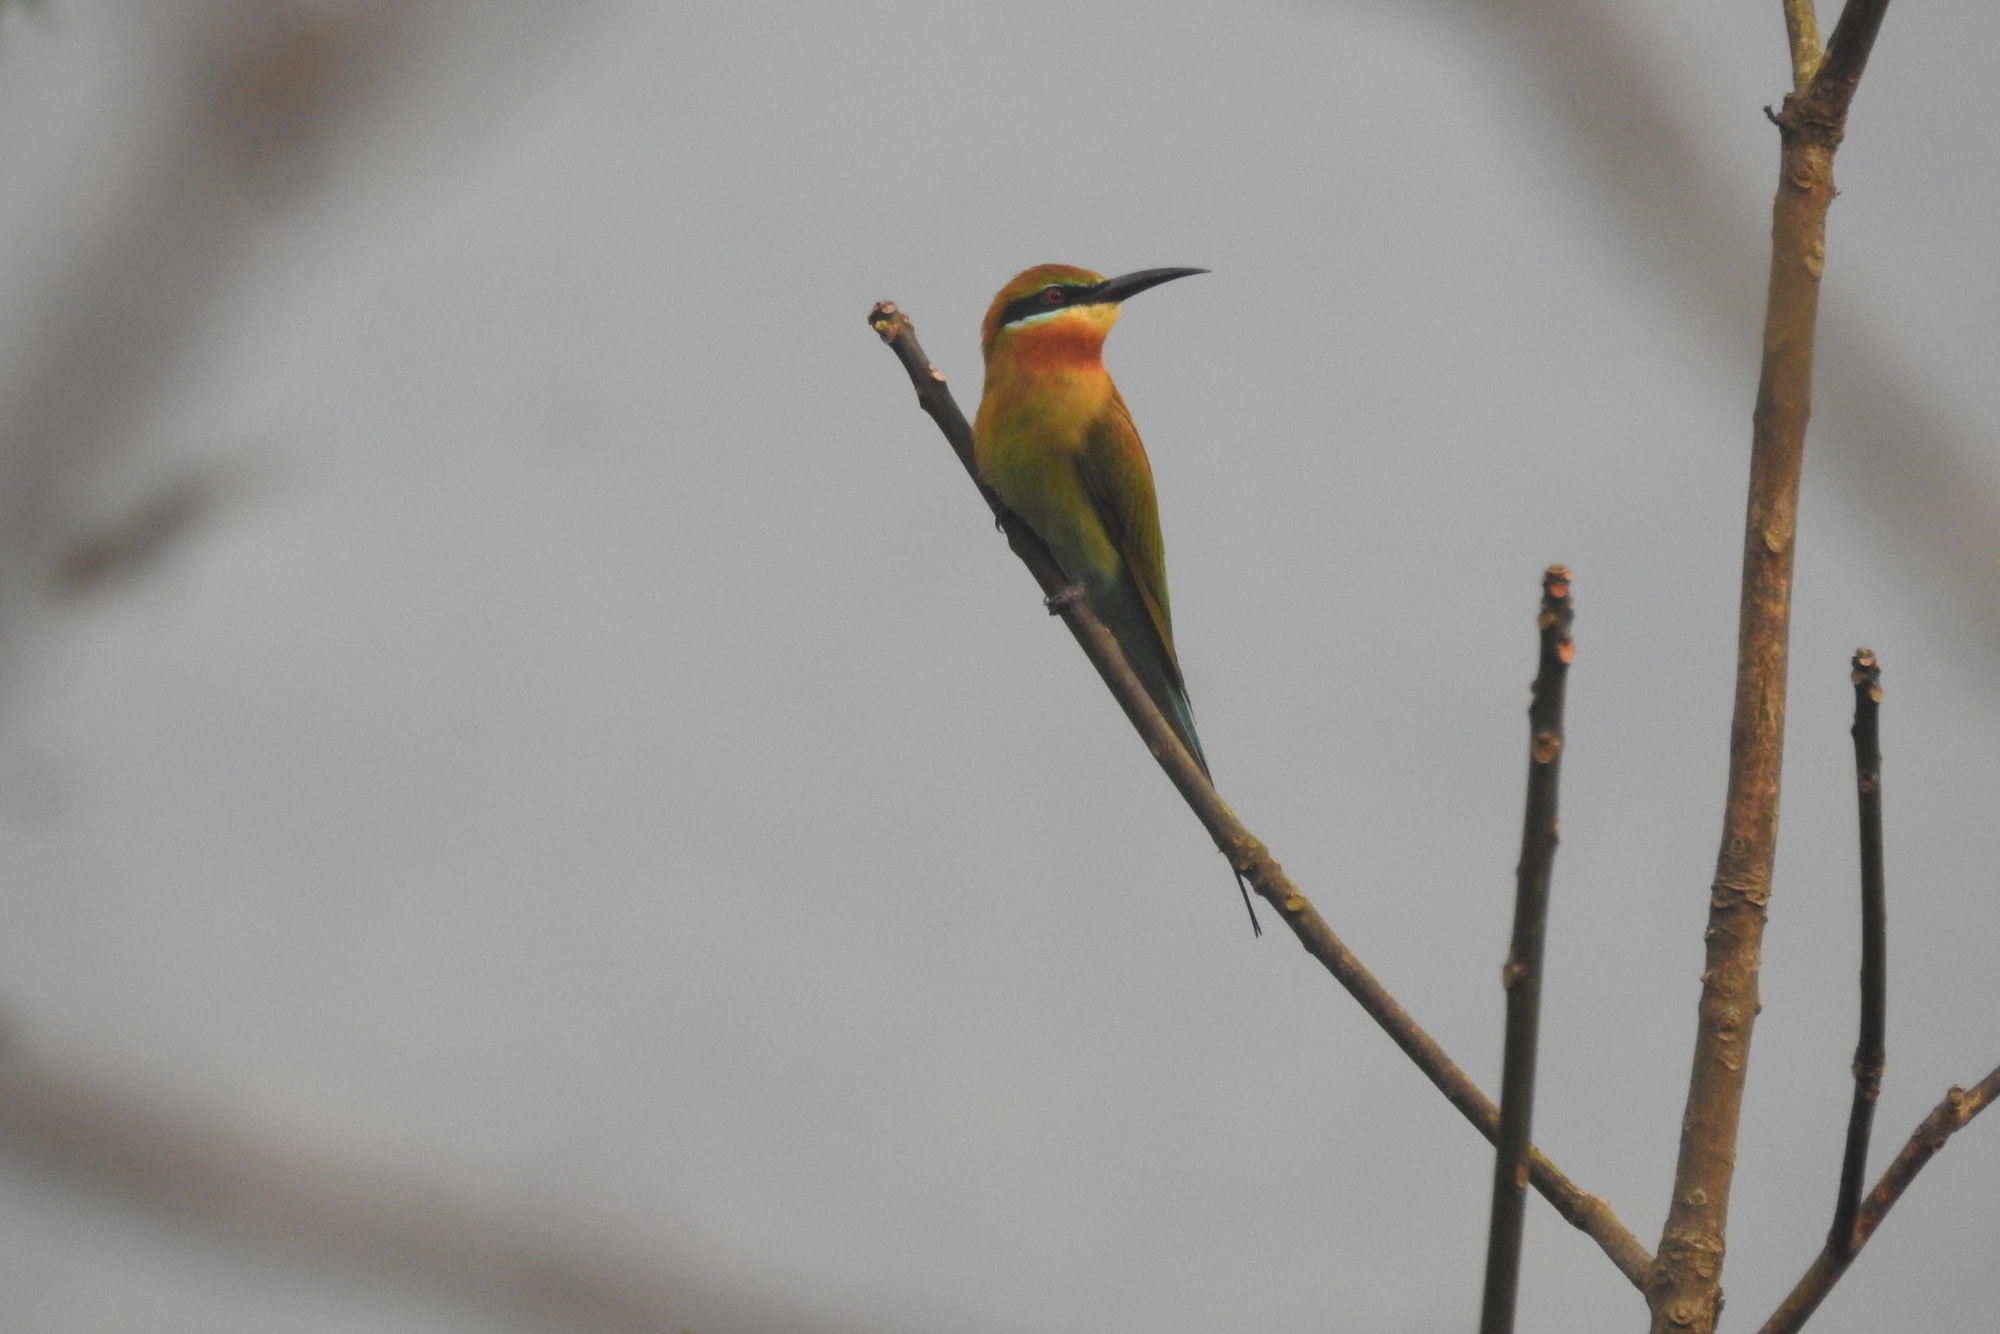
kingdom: Animalia
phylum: Chordata
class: Aves
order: Coraciiformes
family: Meropidae
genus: Merops
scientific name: Merops philippinus
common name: Blue-tailed bee-eater
